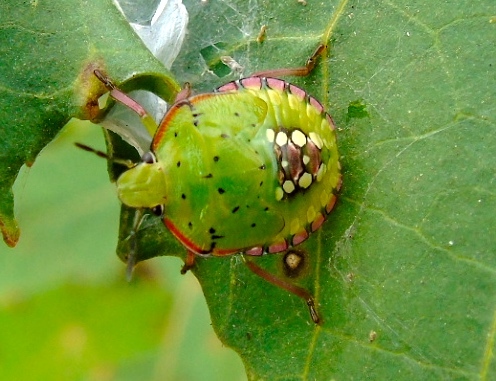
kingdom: Animalia
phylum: Arthropoda
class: Insecta
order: Hemiptera
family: Pentatomidae
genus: Nezara
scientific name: Nezara viridula
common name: Southern green stink bug
